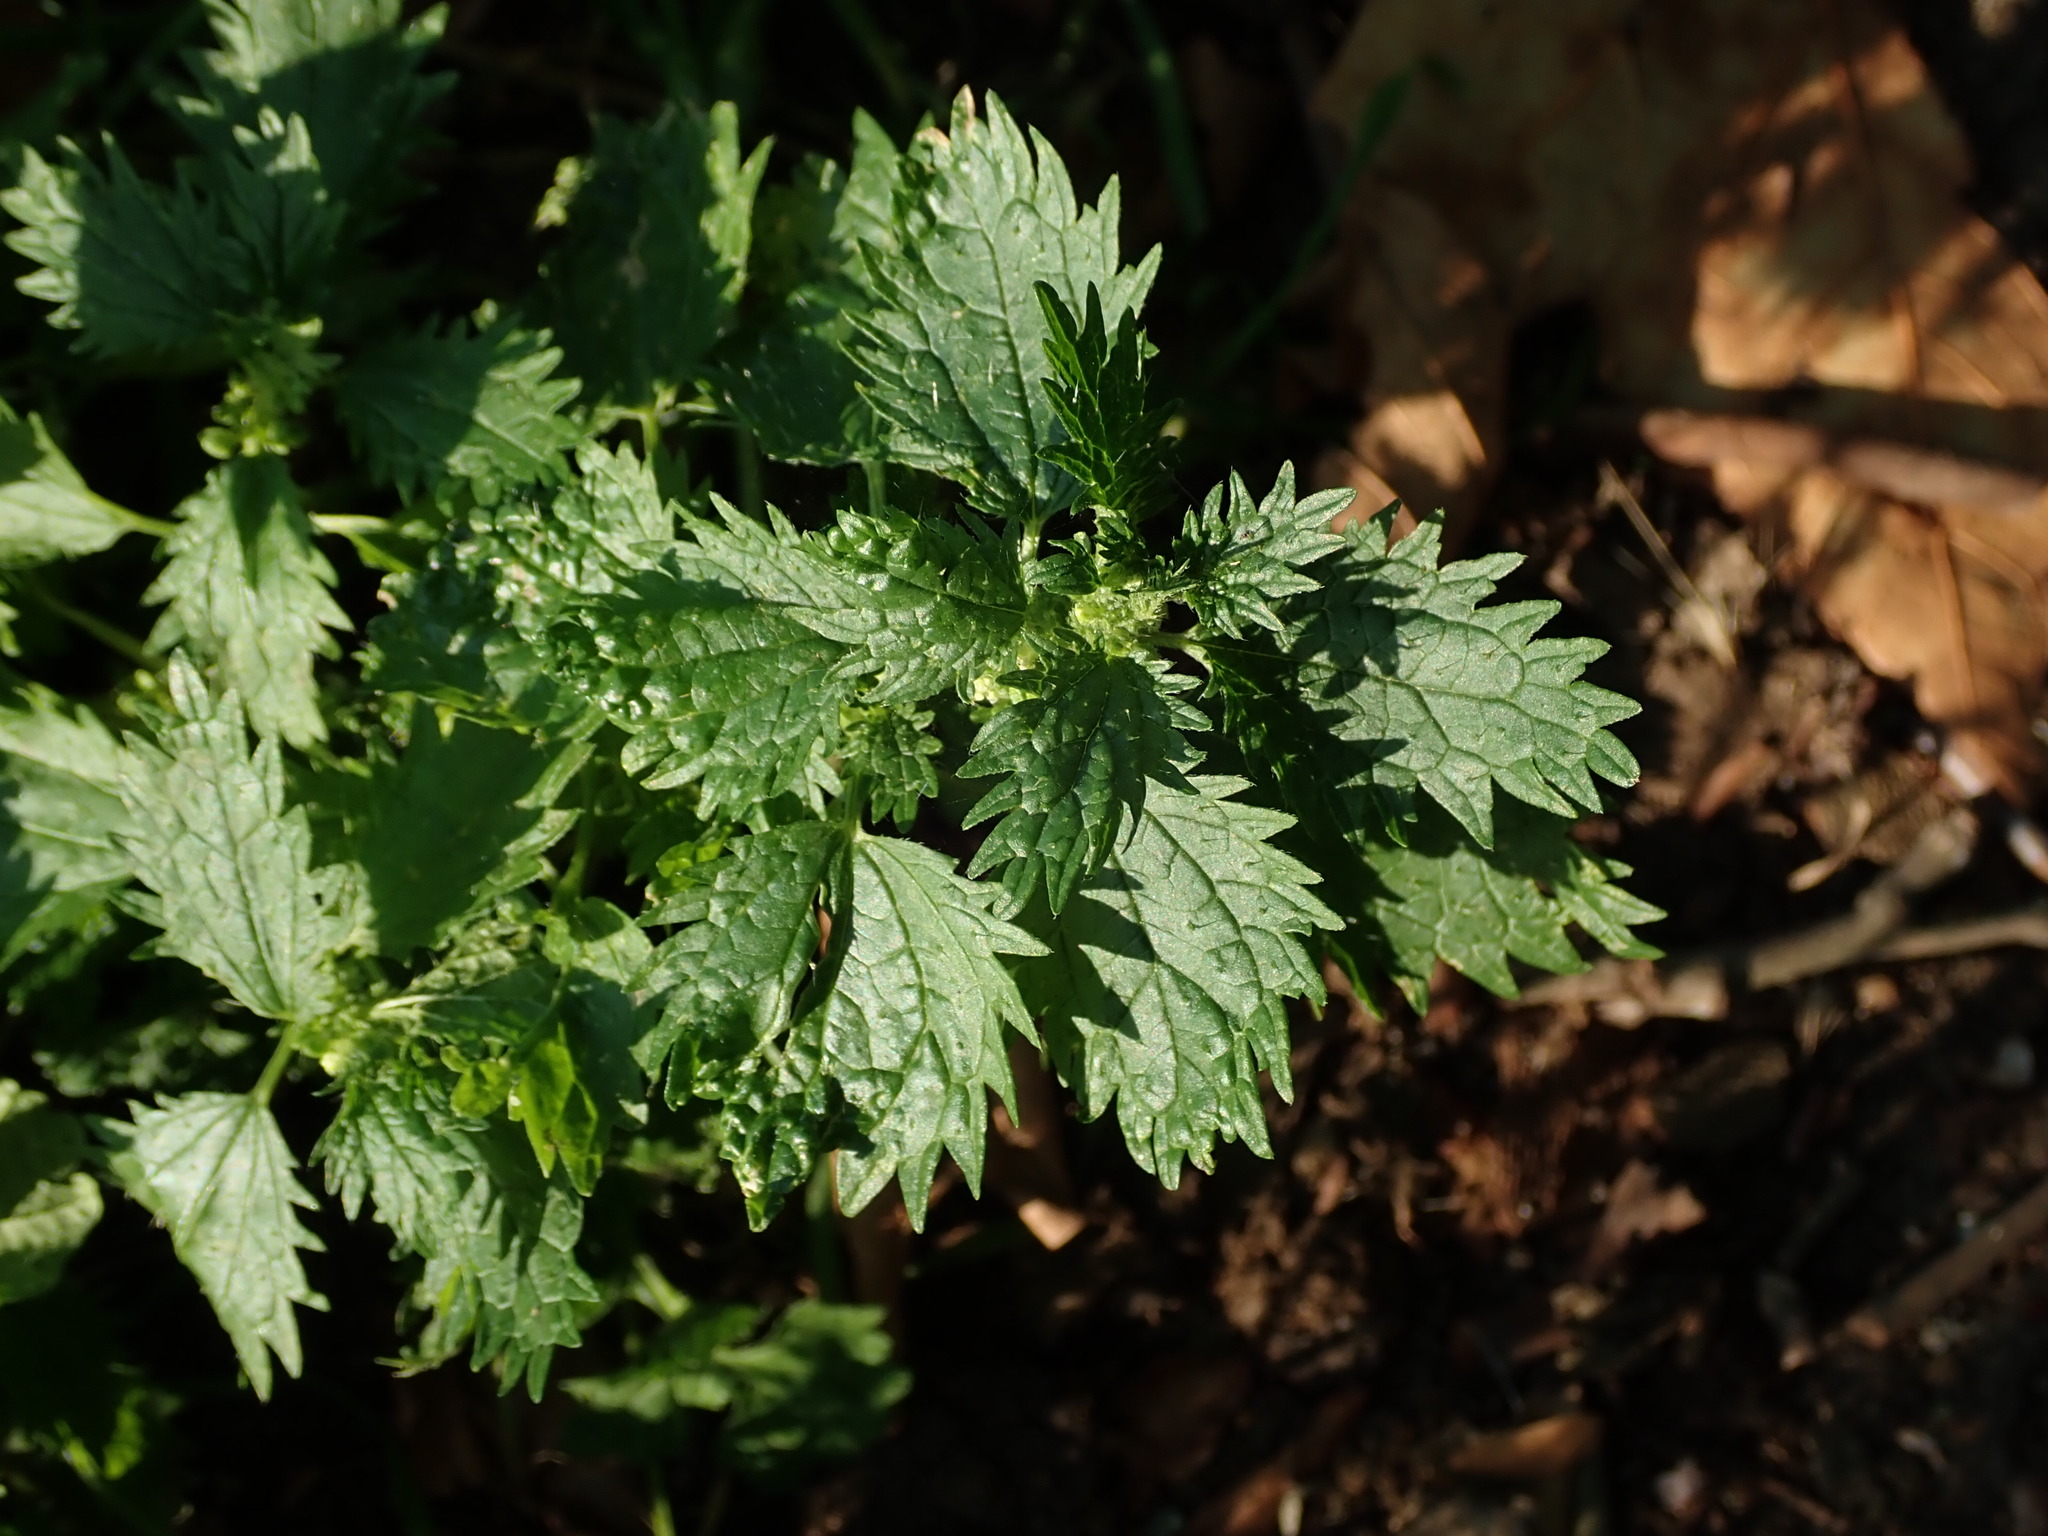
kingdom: Plantae
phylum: Tracheophyta
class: Magnoliopsida
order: Rosales
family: Urticaceae
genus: Urtica
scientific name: Urtica urens
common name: Dwarf nettle
